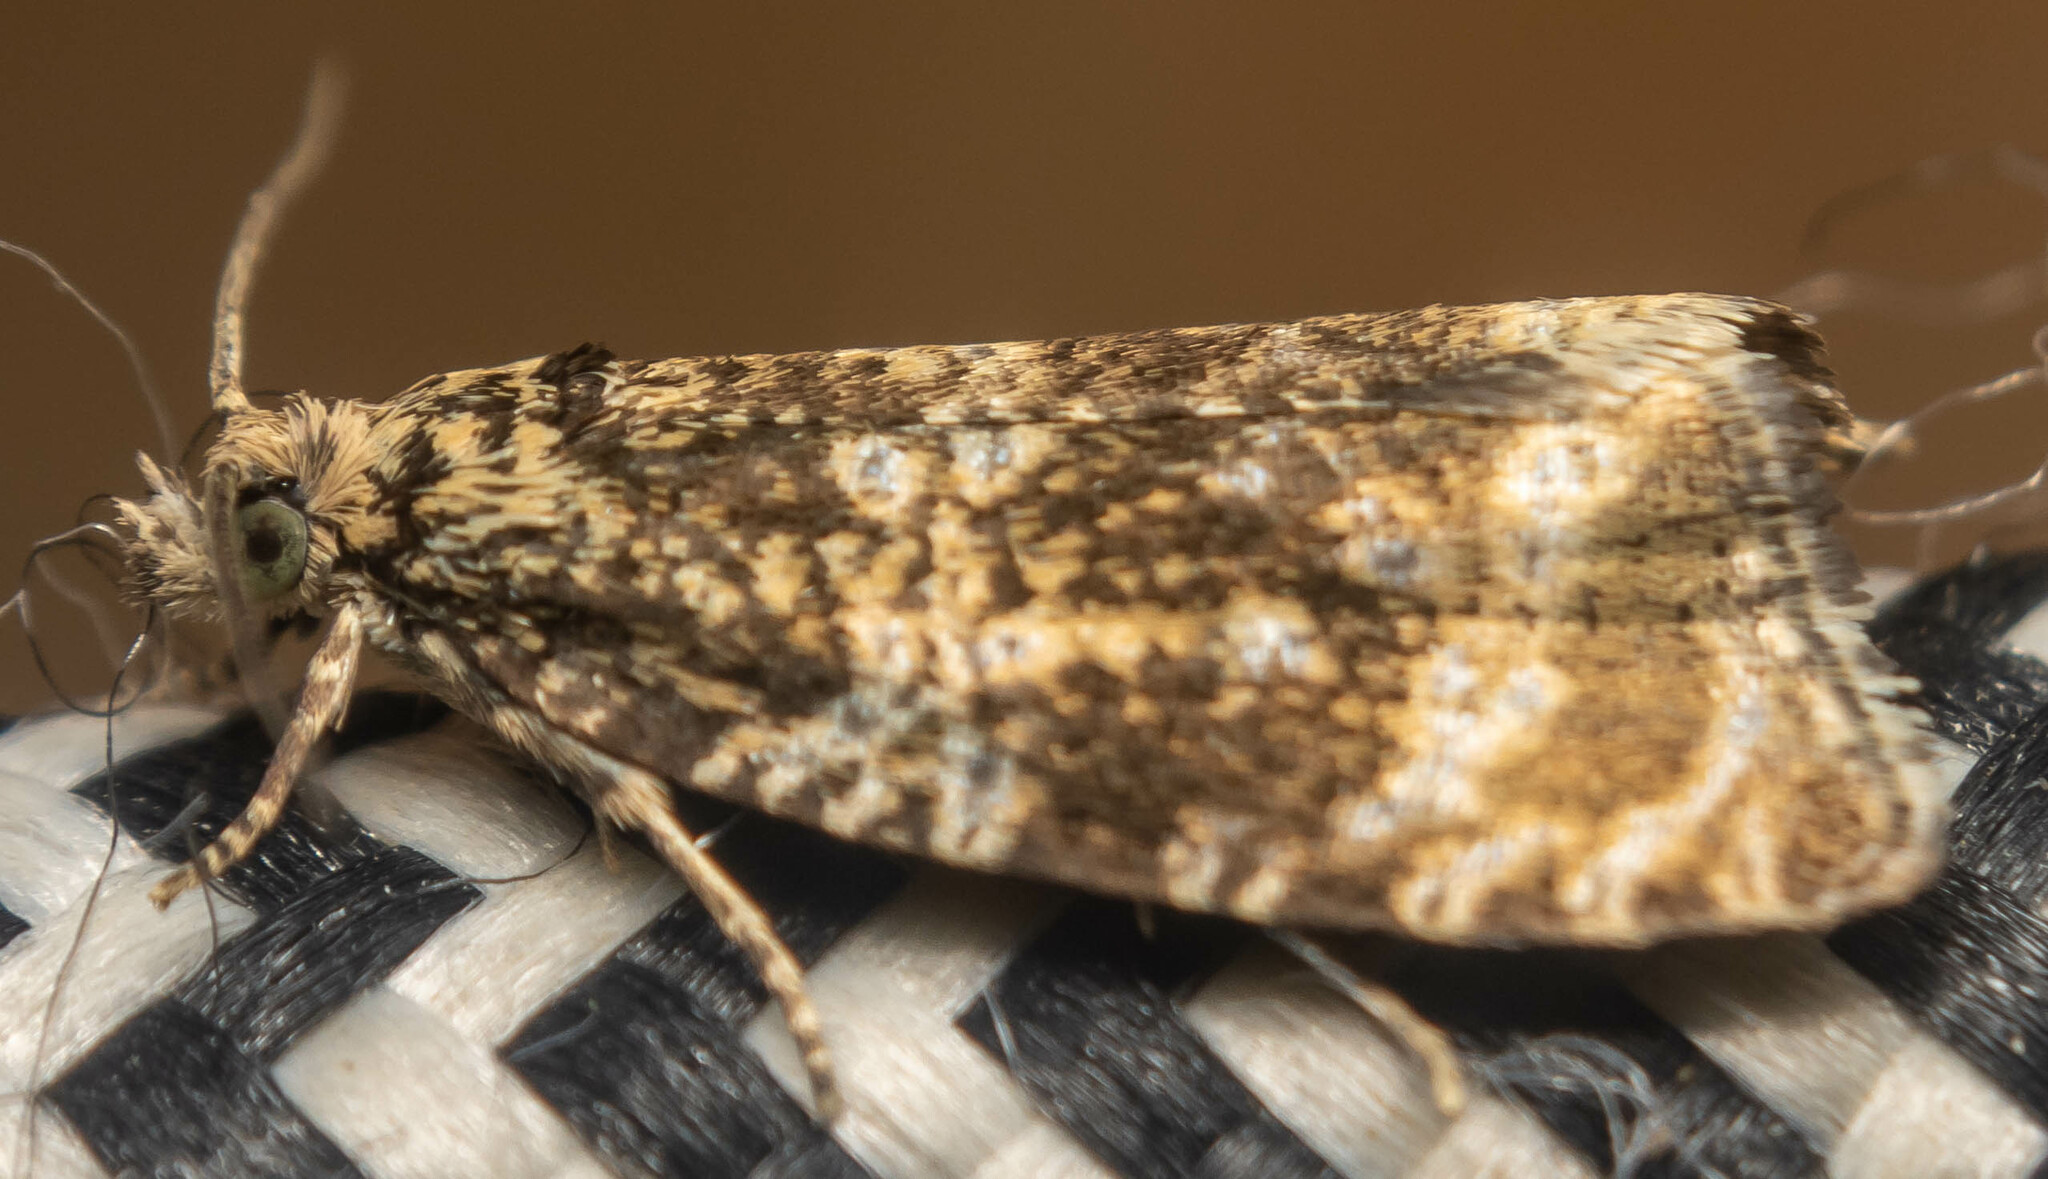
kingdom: Animalia
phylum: Arthropoda
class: Insecta
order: Lepidoptera
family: Tortricidae
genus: Syricoris
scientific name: Syricoris lacunana
